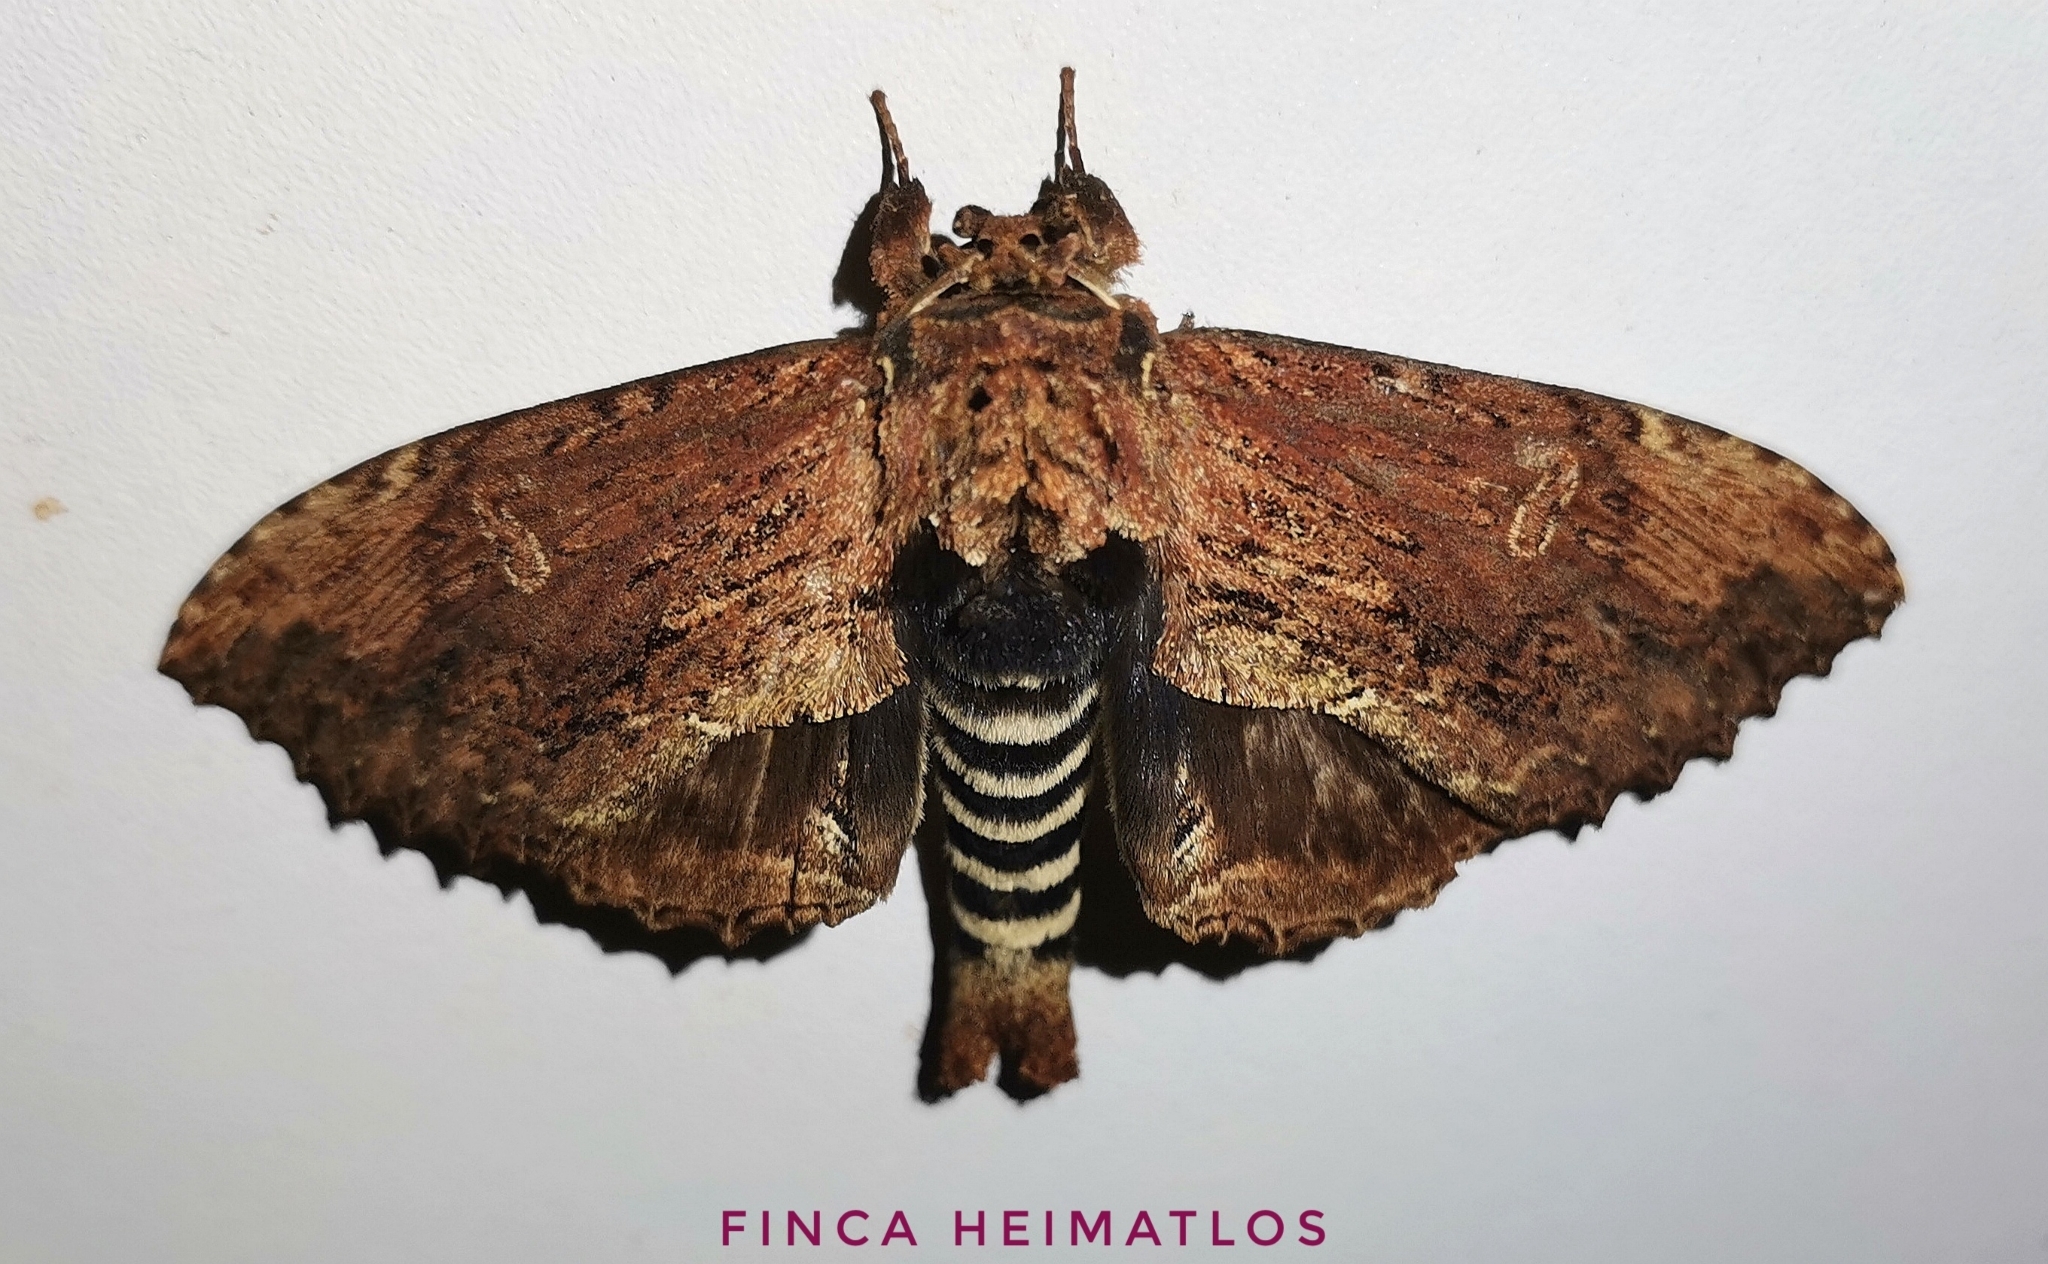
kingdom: Animalia
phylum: Arthropoda
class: Insecta
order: Lepidoptera
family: Bombycidae
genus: Naprepa
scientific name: Naprepa cyllota
